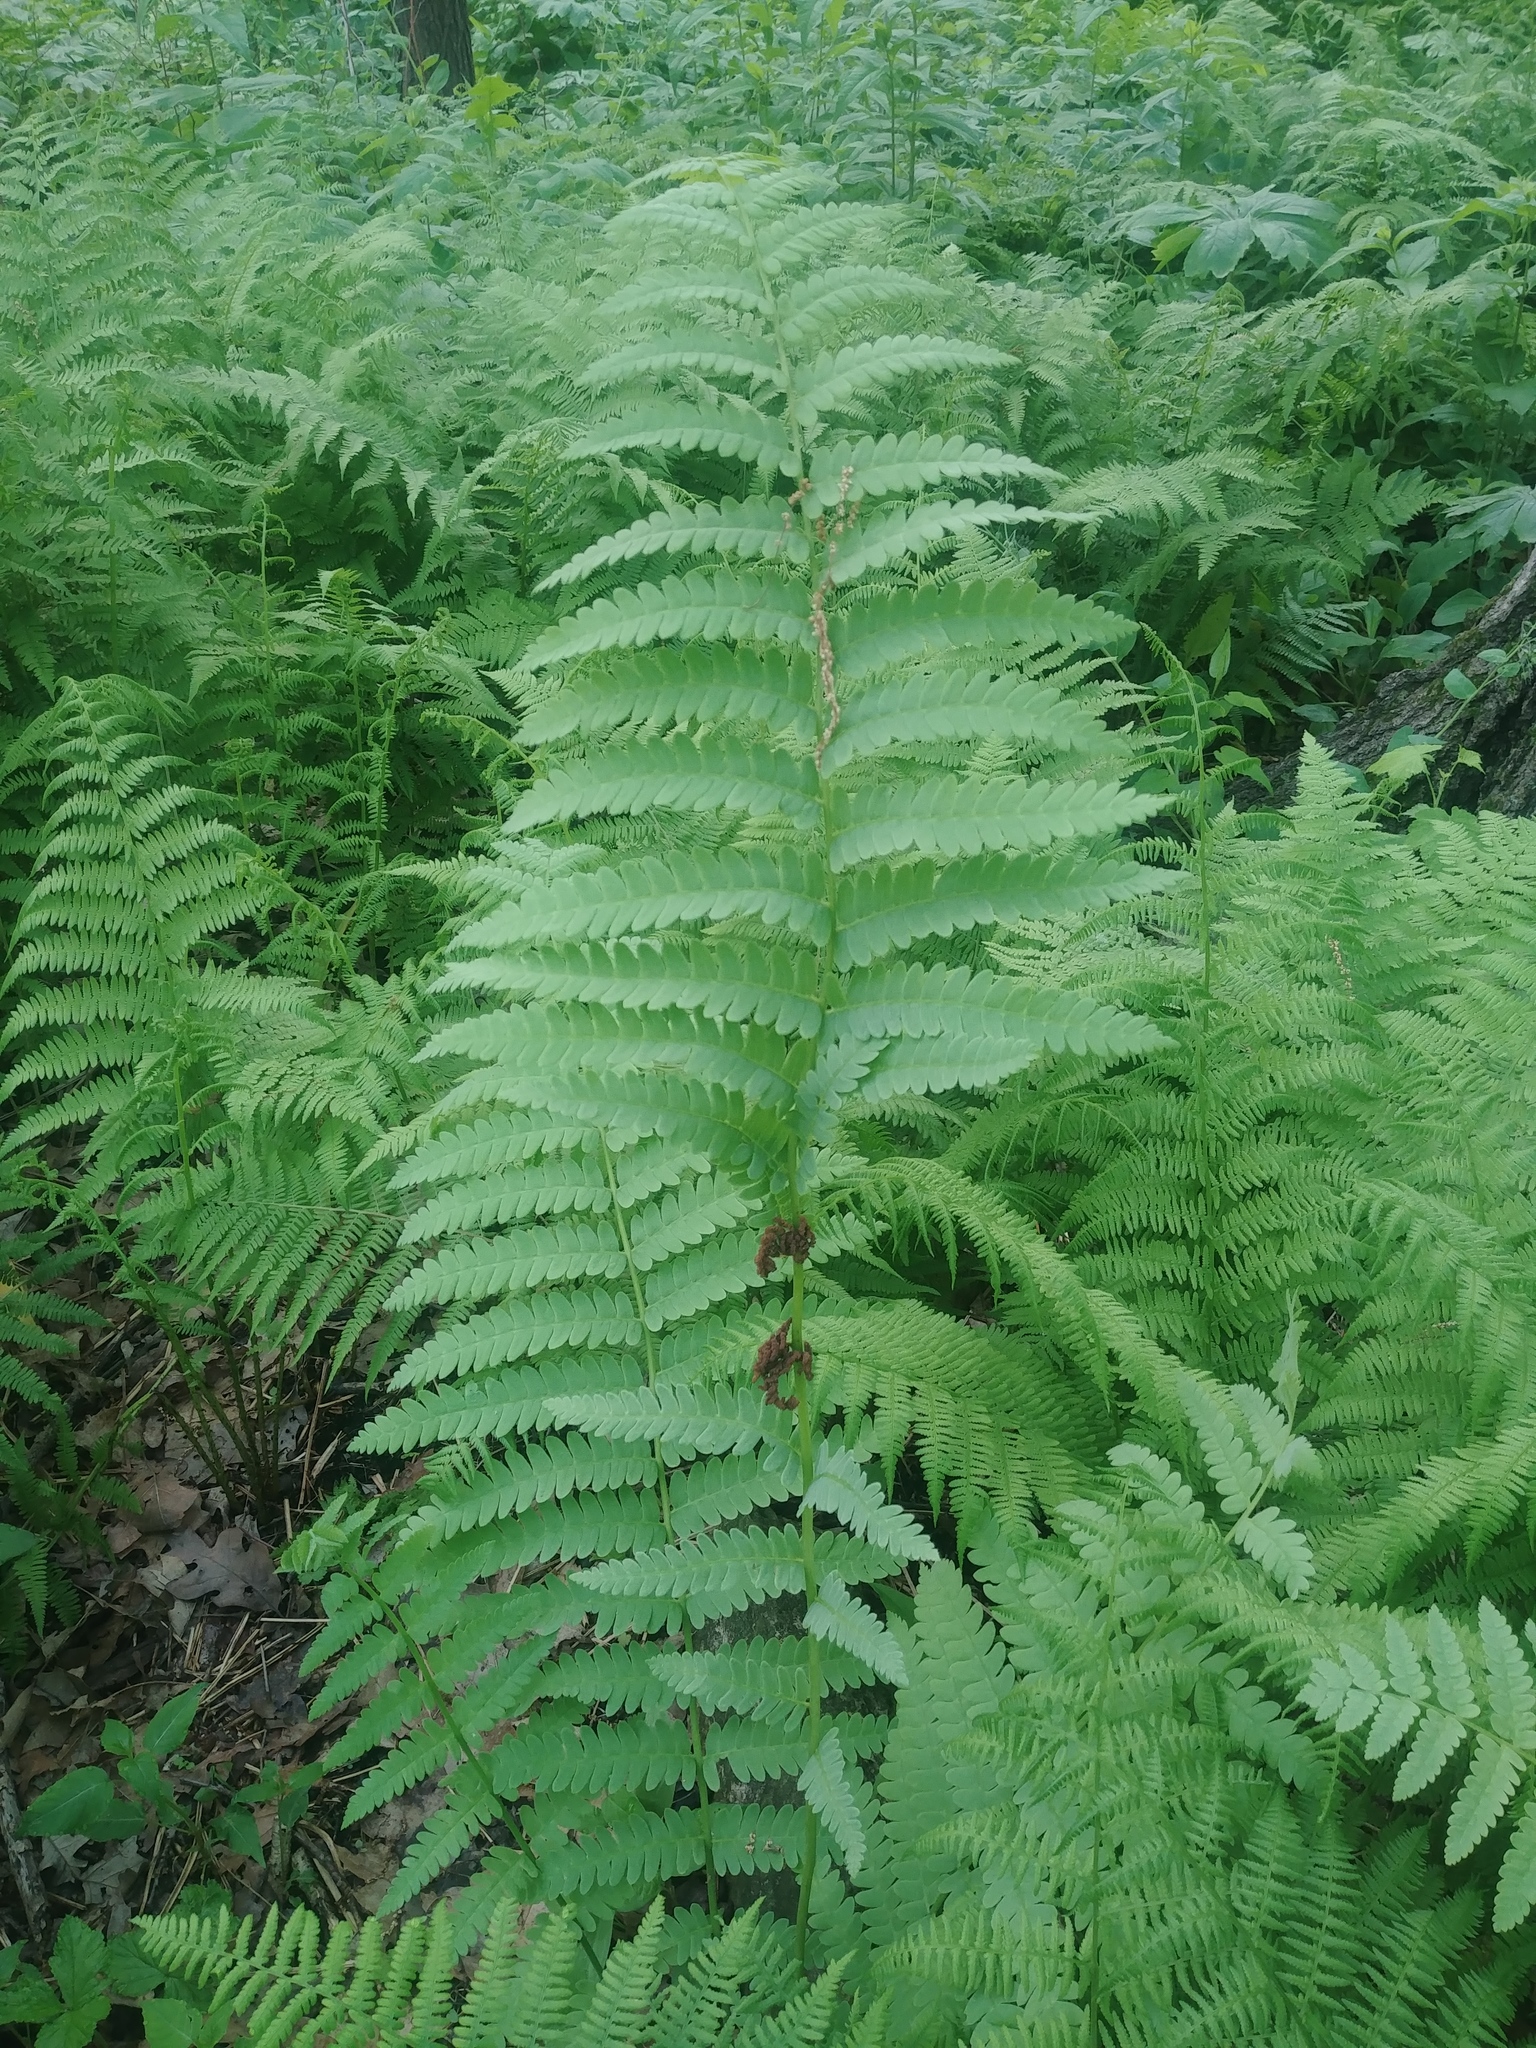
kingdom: Plantae
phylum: Tracheophyta
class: Polypodiopsida
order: Osmundales
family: Osmundaceae
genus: Claytosmunda
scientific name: Claytosmunda claytoniana
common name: Clayton's fern
